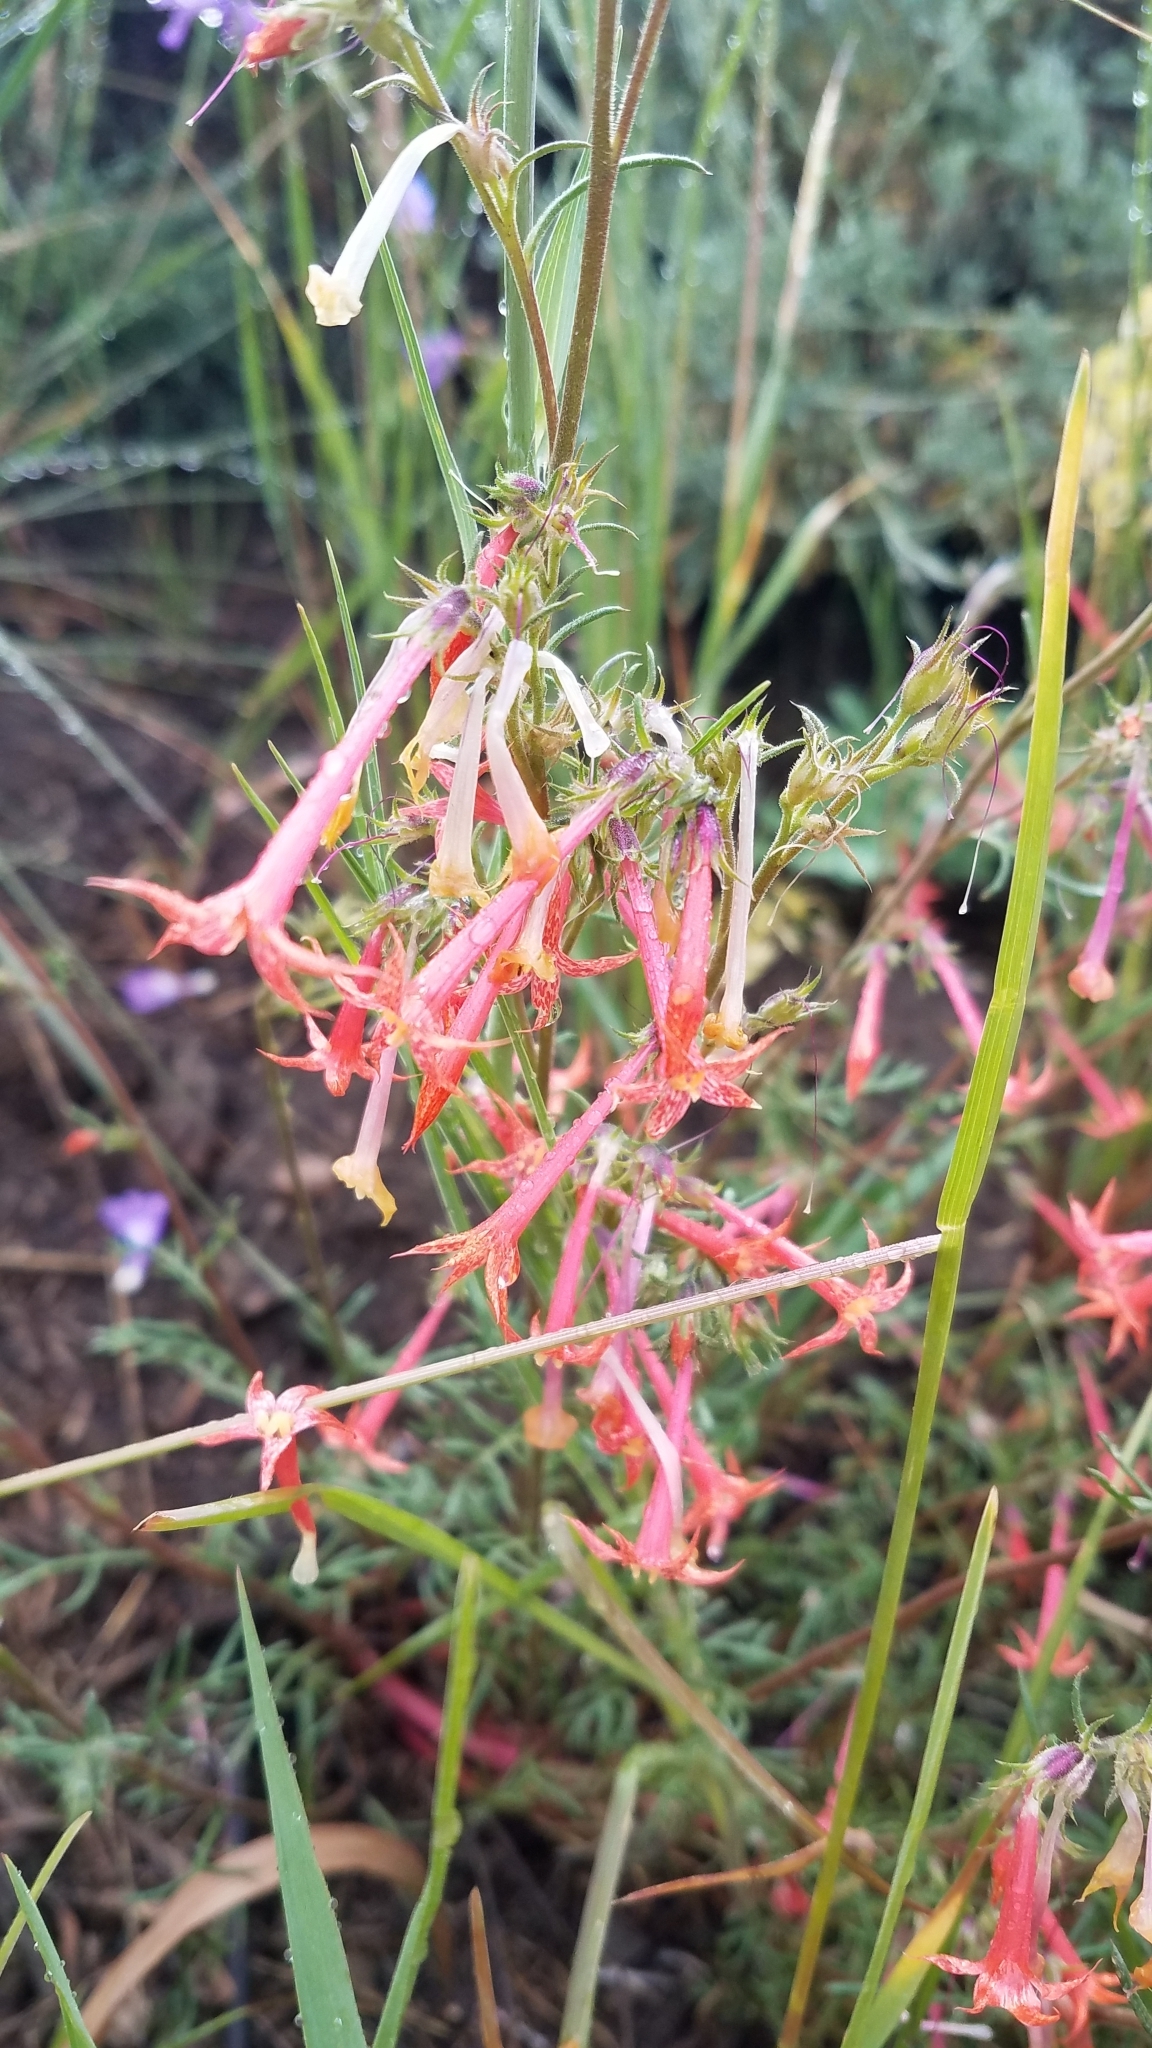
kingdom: Plantae
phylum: Tracheophyta
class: Magnoliopsida
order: Ericales
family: Polemoniaceae
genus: Ipomopsis
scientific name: Ipomopsis aggregata
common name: Scarlet gilia
